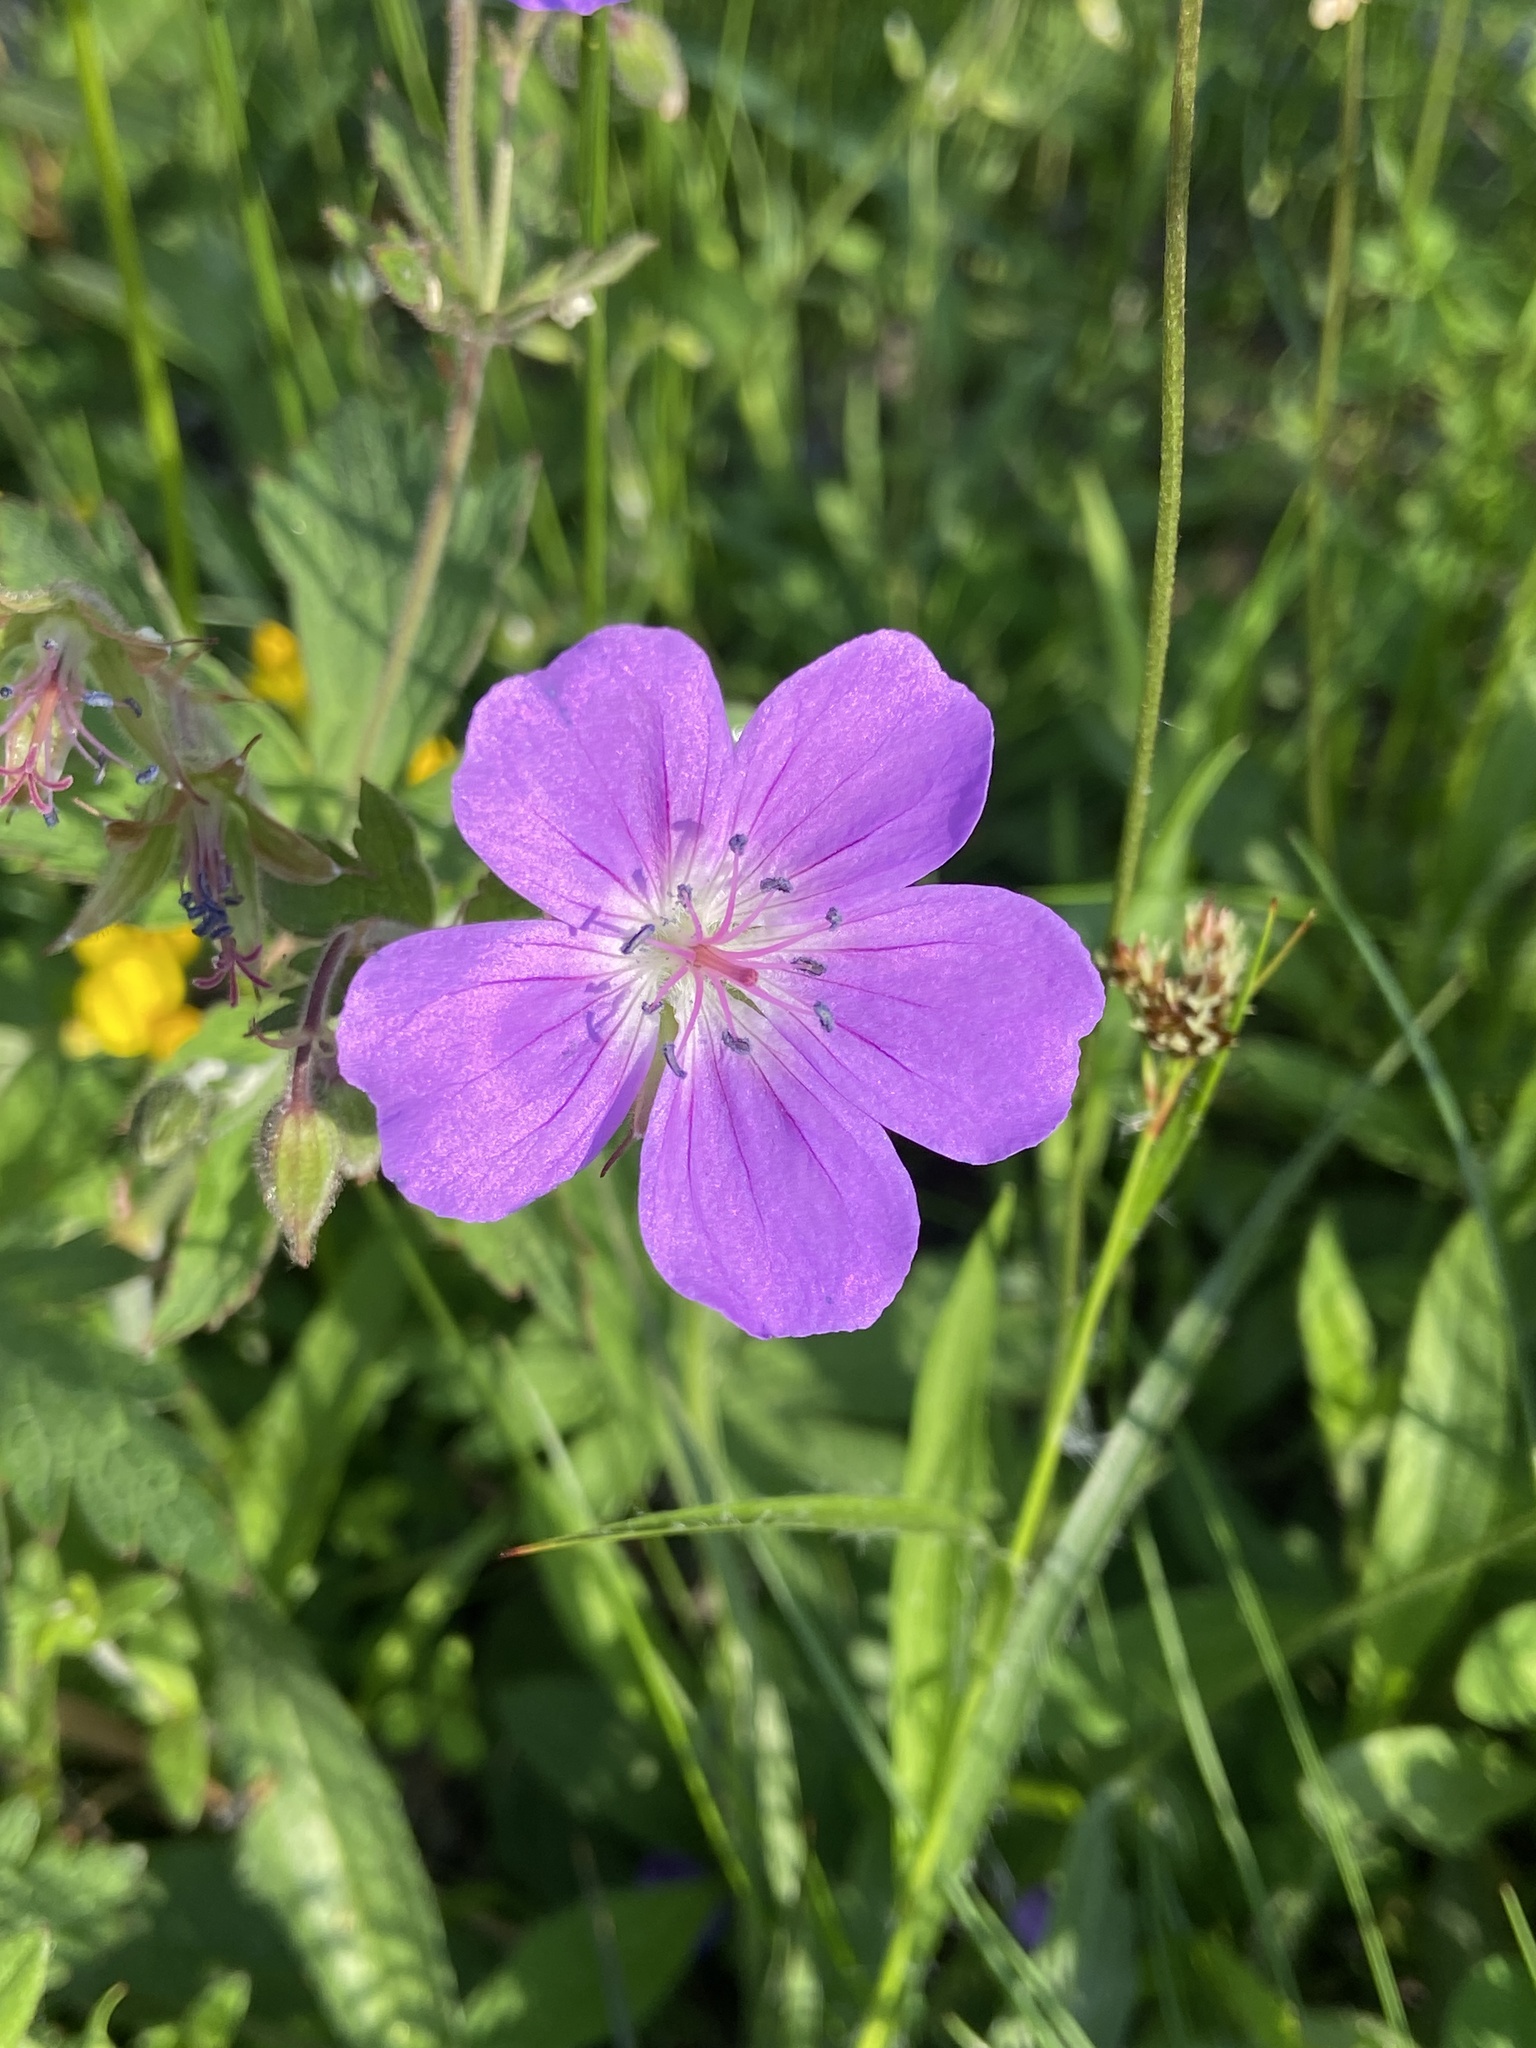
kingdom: Plantae
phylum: Tracheophyta
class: Magnoliopsida
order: Geraniales
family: Geraniaceae
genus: Geranium
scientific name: Geranium sylvaticum
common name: Wood crane's-bill
